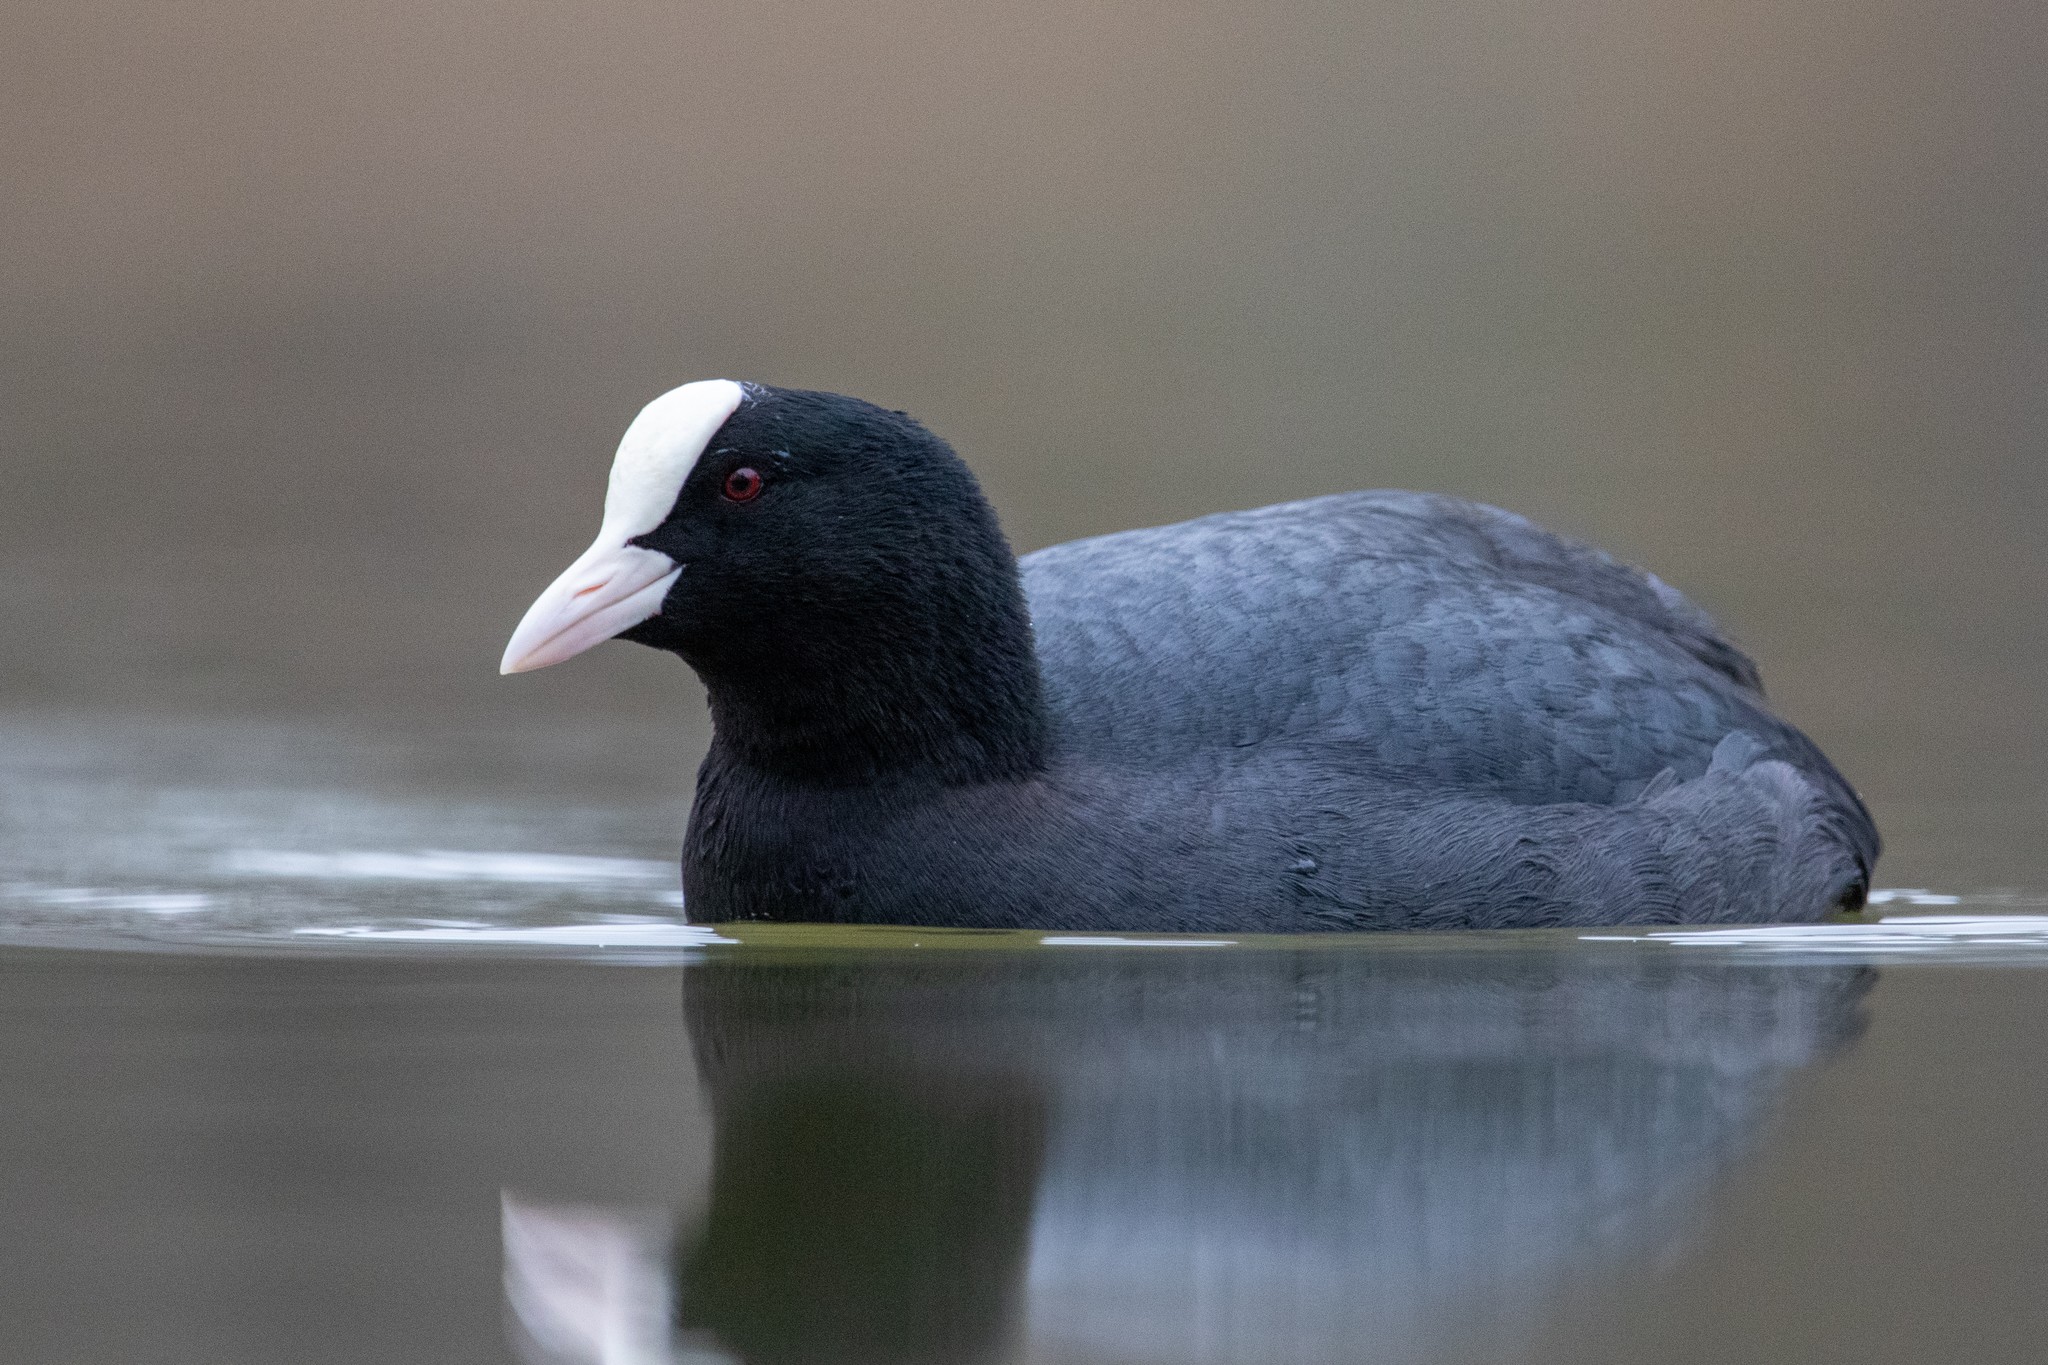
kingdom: Animalia
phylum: Chordata
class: Aves
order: Gruiformes
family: Rallidae
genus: Fulica
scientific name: Fulica atra
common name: Eurasian coot
